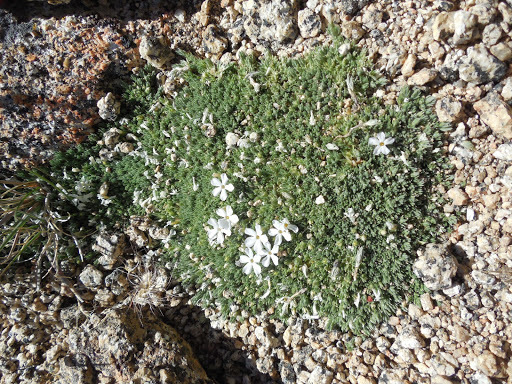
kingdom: Plantae
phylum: Tracheophyta
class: Magnoliopsida
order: Ericales
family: Polemoniaceae
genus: Phlox
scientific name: Phlox condensata
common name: Compact phlox
